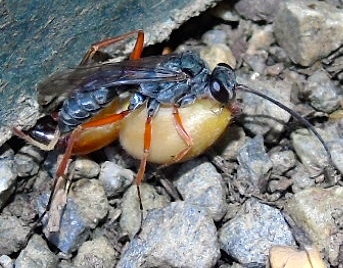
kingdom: Animalia
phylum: Arthropoda
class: Insecta
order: Hymenoptera
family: Pompilidae
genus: Auplopus
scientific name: Auplopus
